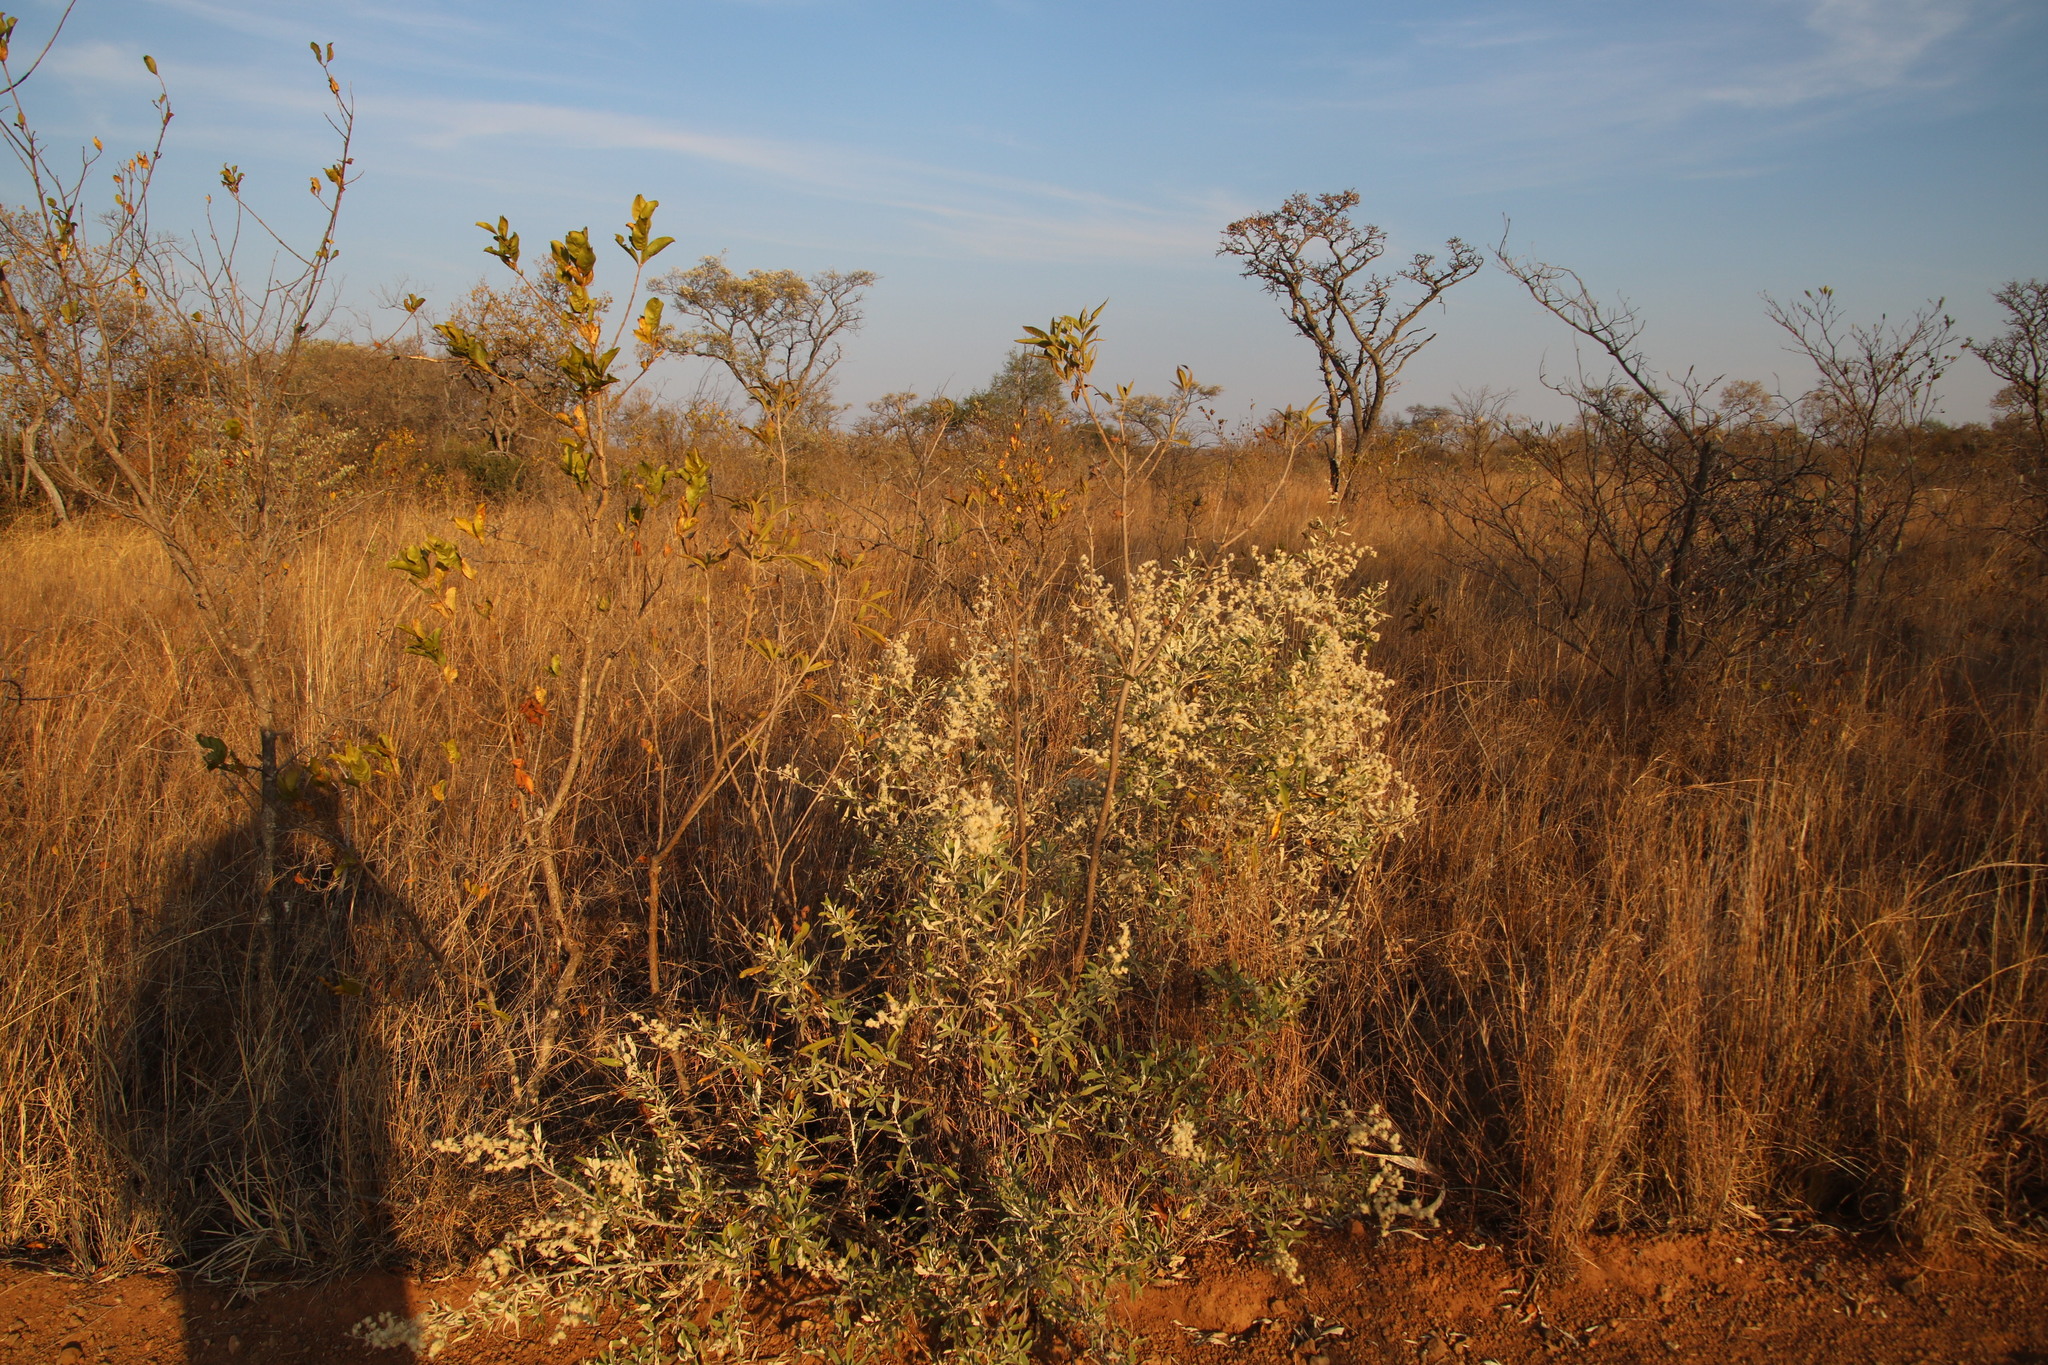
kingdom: Plantae
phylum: Tracheophyta
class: Magnoliopsida
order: Asterales
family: Asteraceae
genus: Tarchonanthus
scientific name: Tarchonanthus camphoratus
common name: Camphorwood
